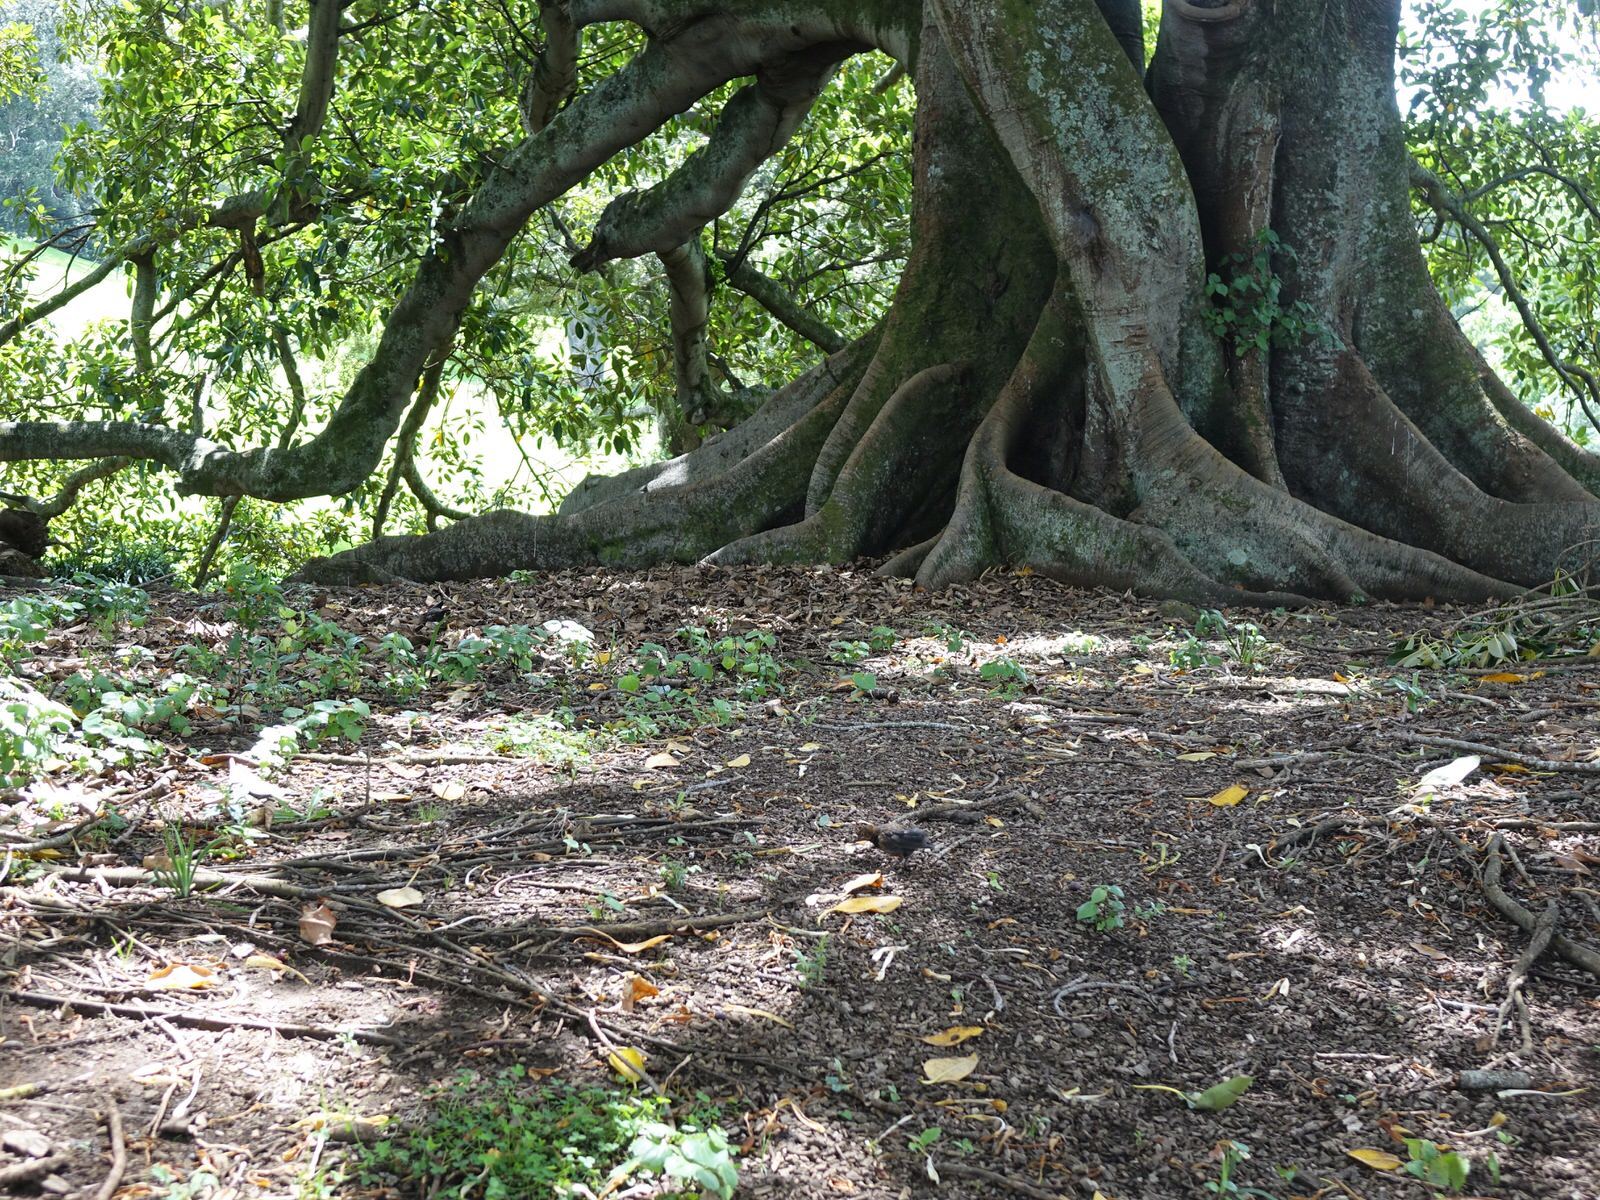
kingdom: Animalia
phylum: Chordata
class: Aves
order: Passeriformes
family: Turdidae
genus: Turdus
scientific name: Turdus merula
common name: Common blackbird
